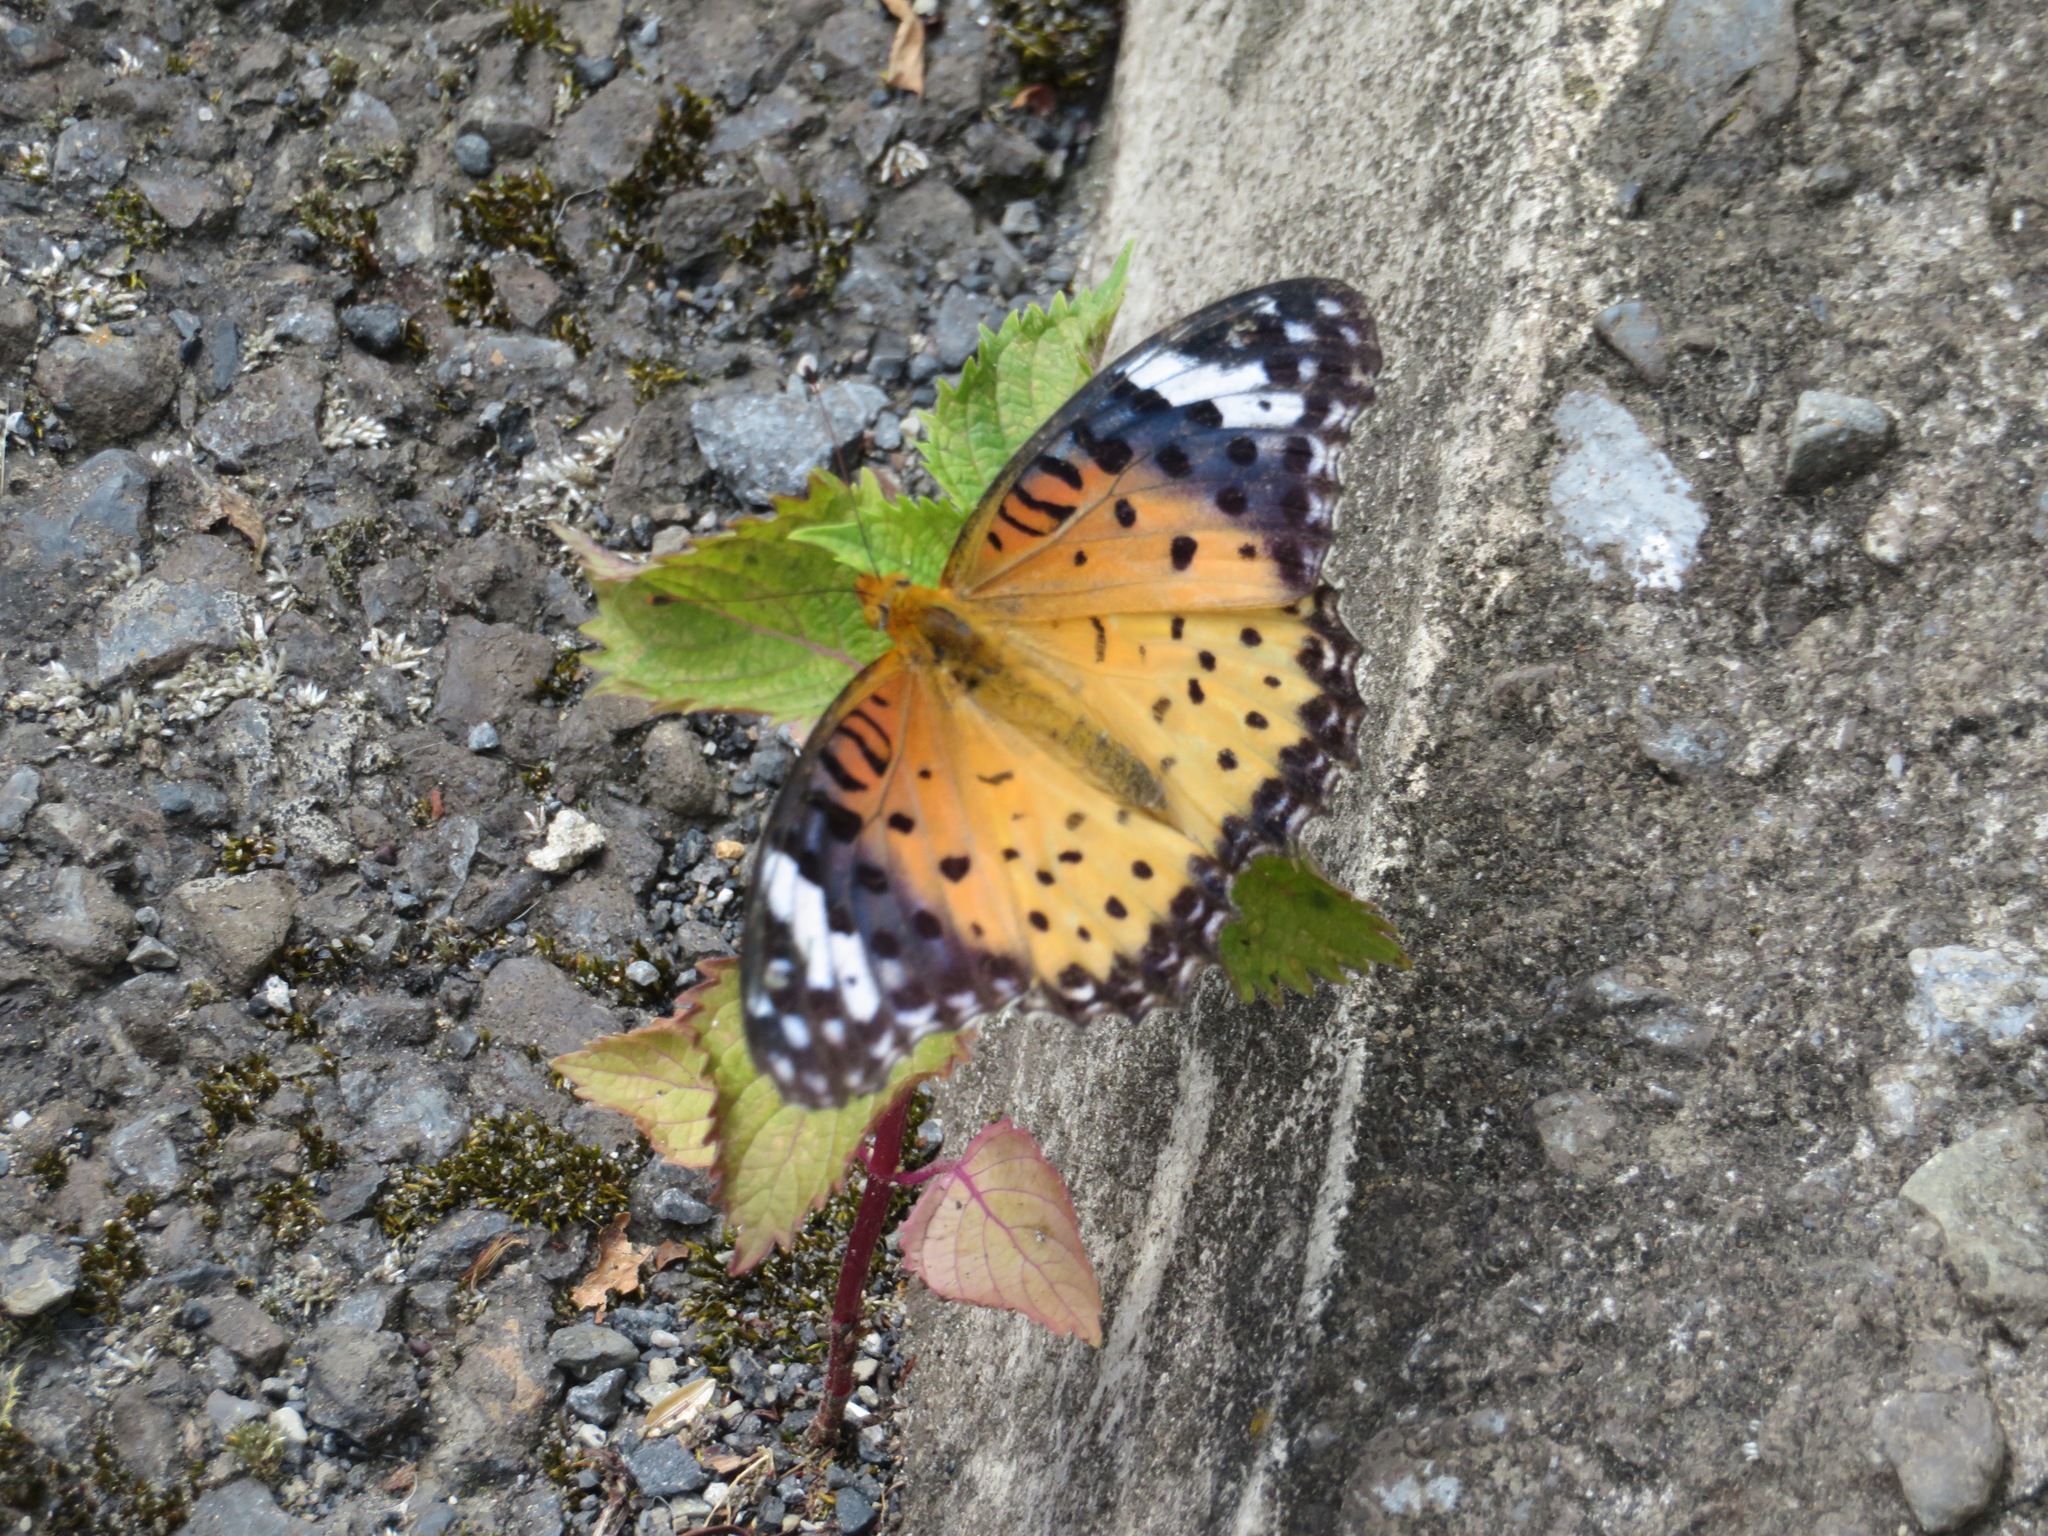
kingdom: Animalia
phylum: Arthropoda
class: Insecta
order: Lepidoptera
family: Nymphalidae
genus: Argynnis
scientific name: Argynnis hyperbius
